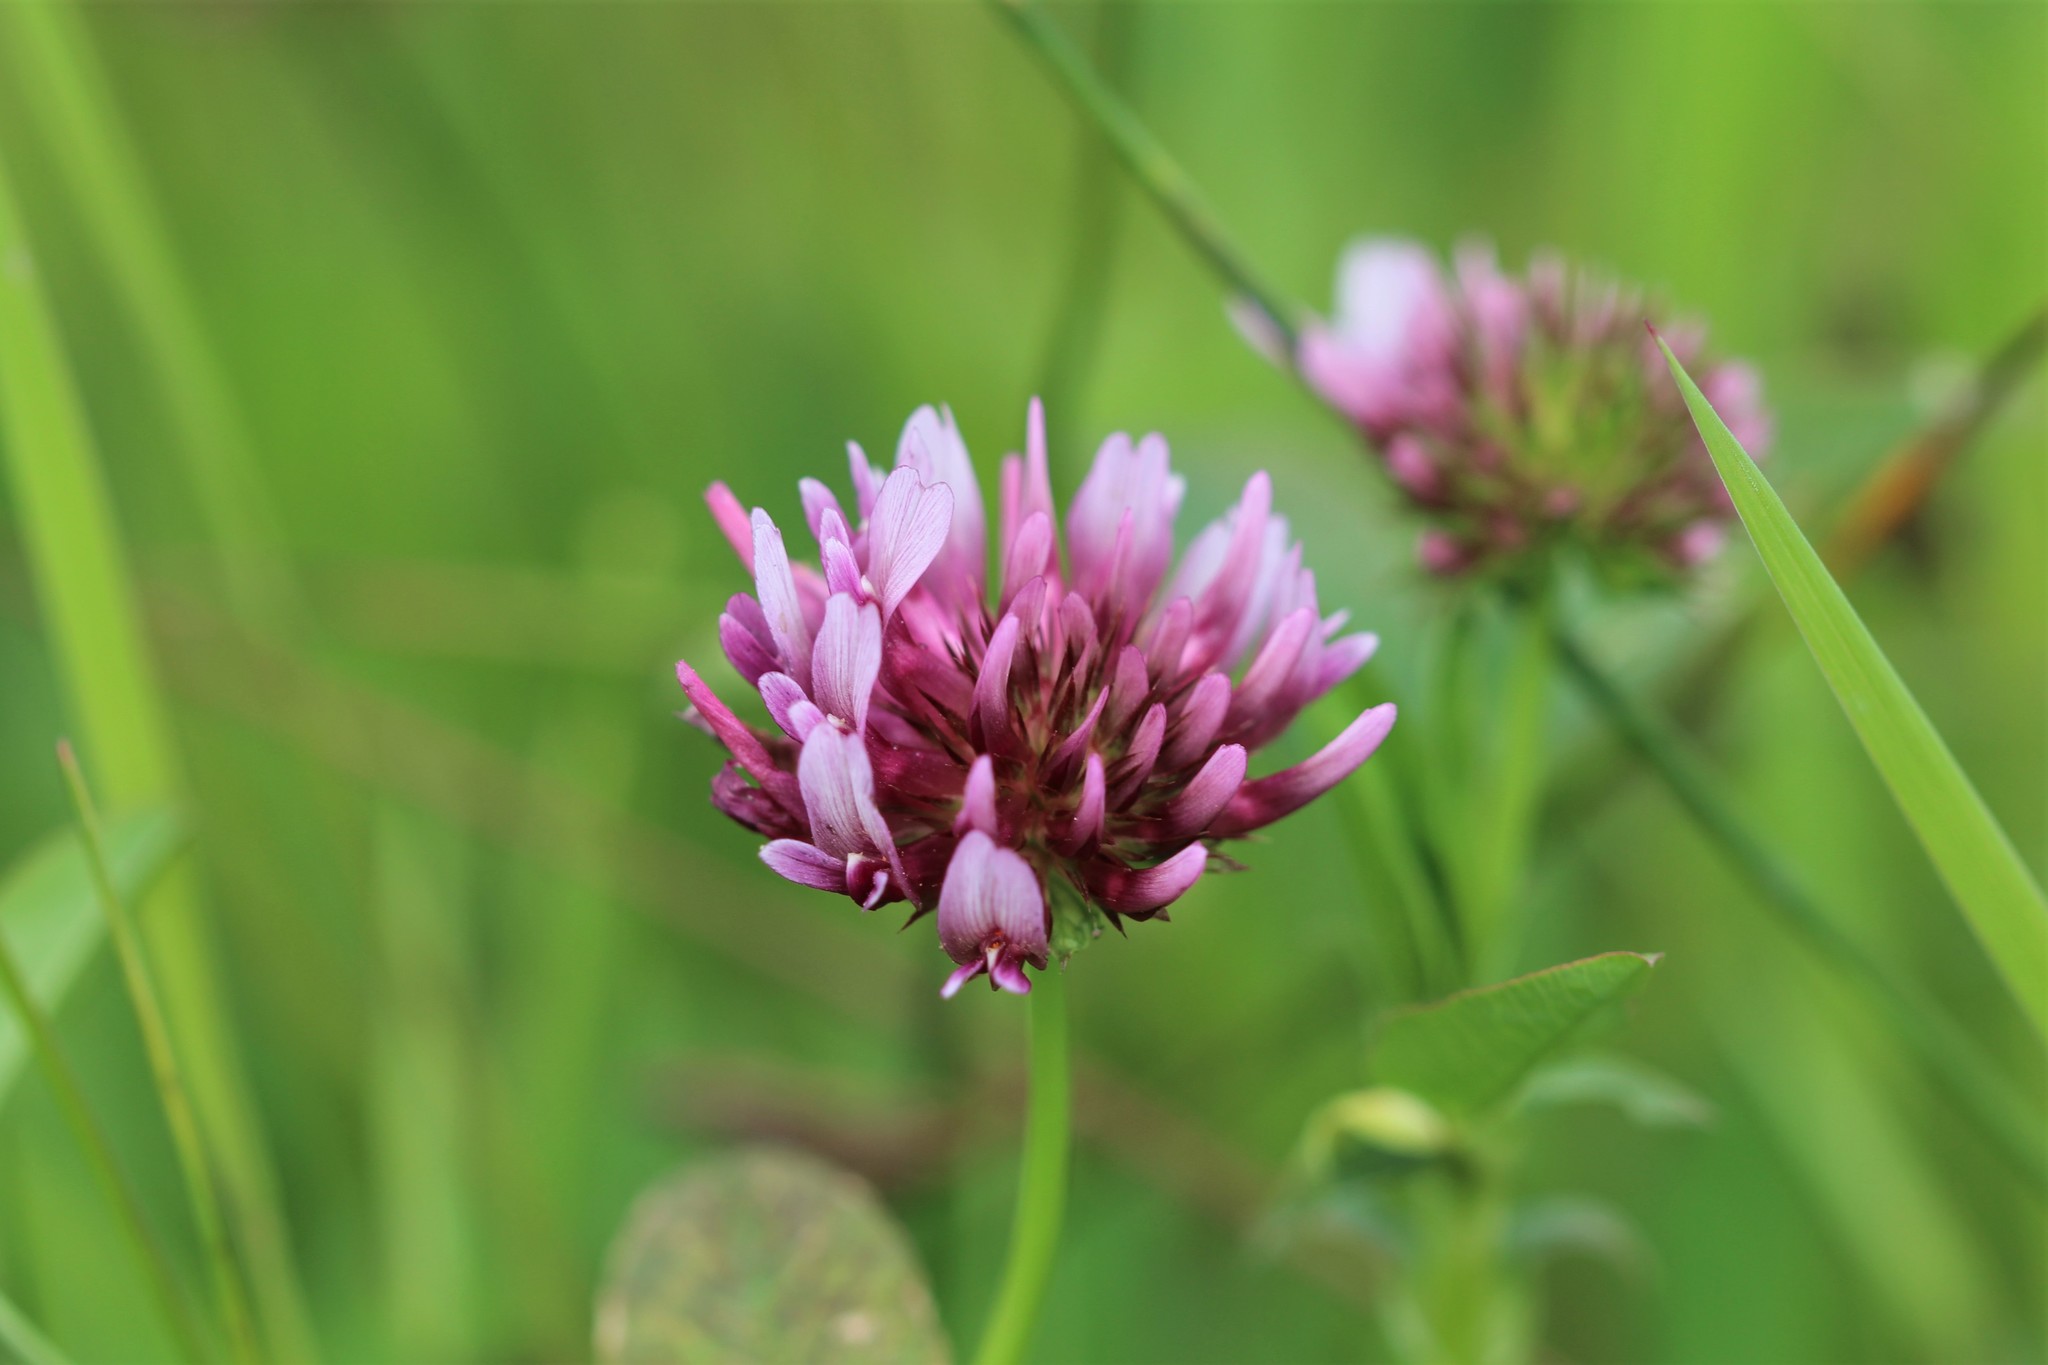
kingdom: Plantae
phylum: Tracheophyta
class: Magnoliopsida
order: Fabales
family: Fabaceae
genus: Trifolium
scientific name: Trifolium wormskioldii
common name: Springbank clover
